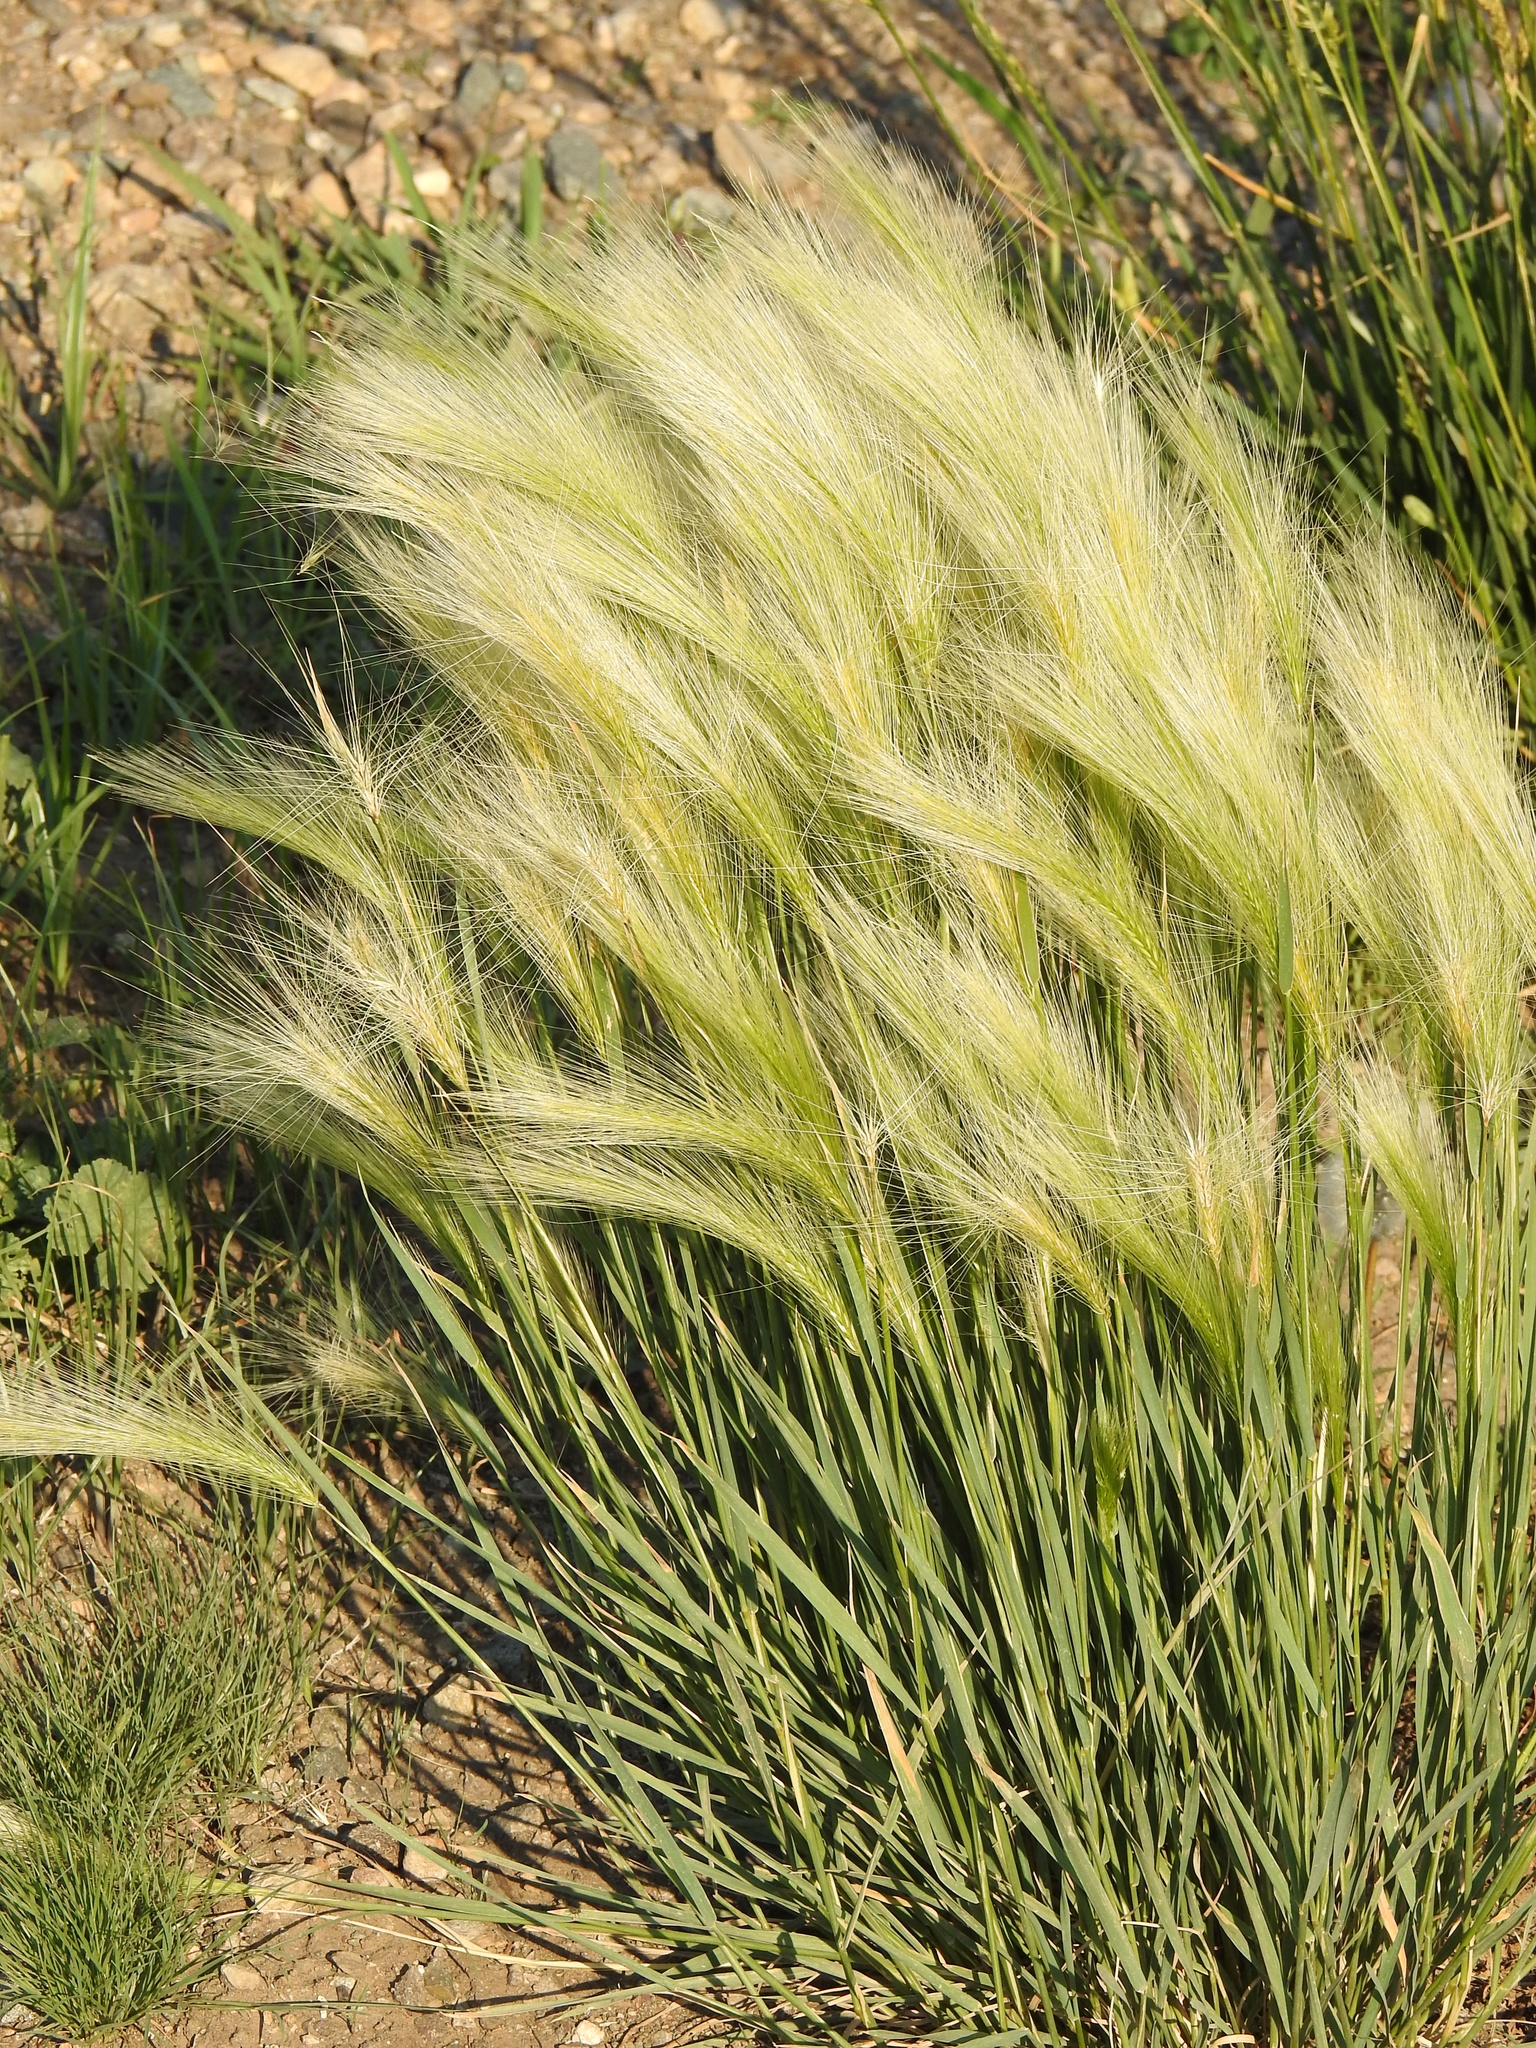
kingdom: Plantae
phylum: Tracheophyta
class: Liliopsida
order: Poales
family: Poaceae
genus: Hordeum
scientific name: Hordeum jubatum
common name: Foxtail barley
